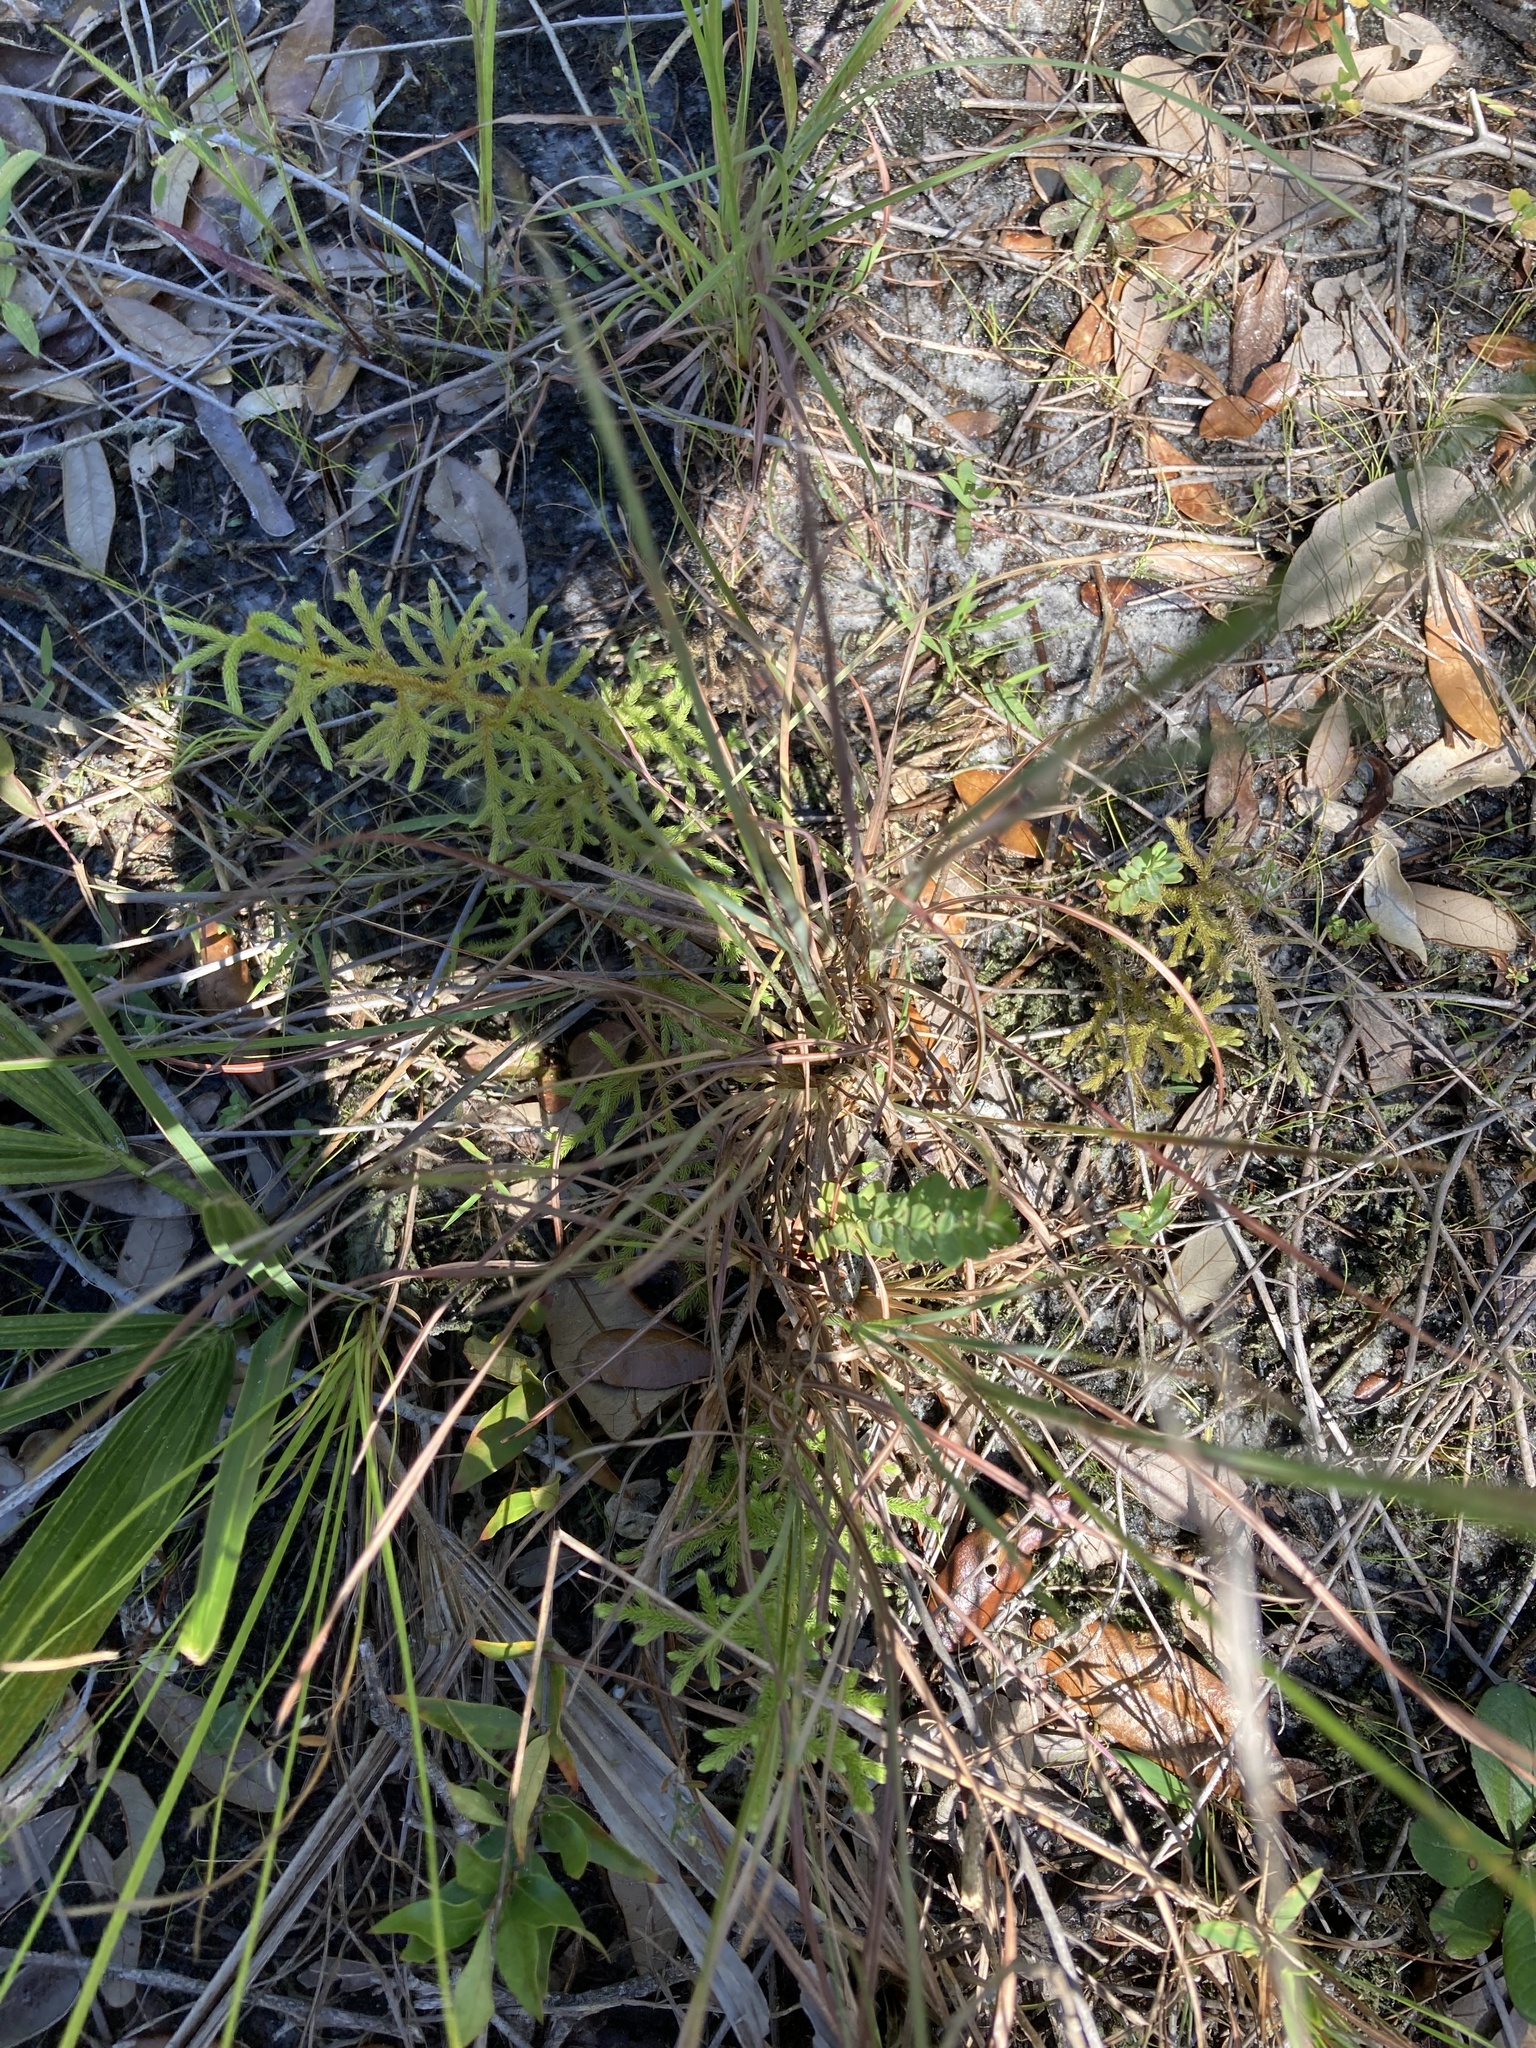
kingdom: Plantae
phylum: Tracheophyta
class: Lycopodiopsida
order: Lycopodiales
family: Lycopodiaceae
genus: Palhinhaea
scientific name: Palhinhaea cernua
